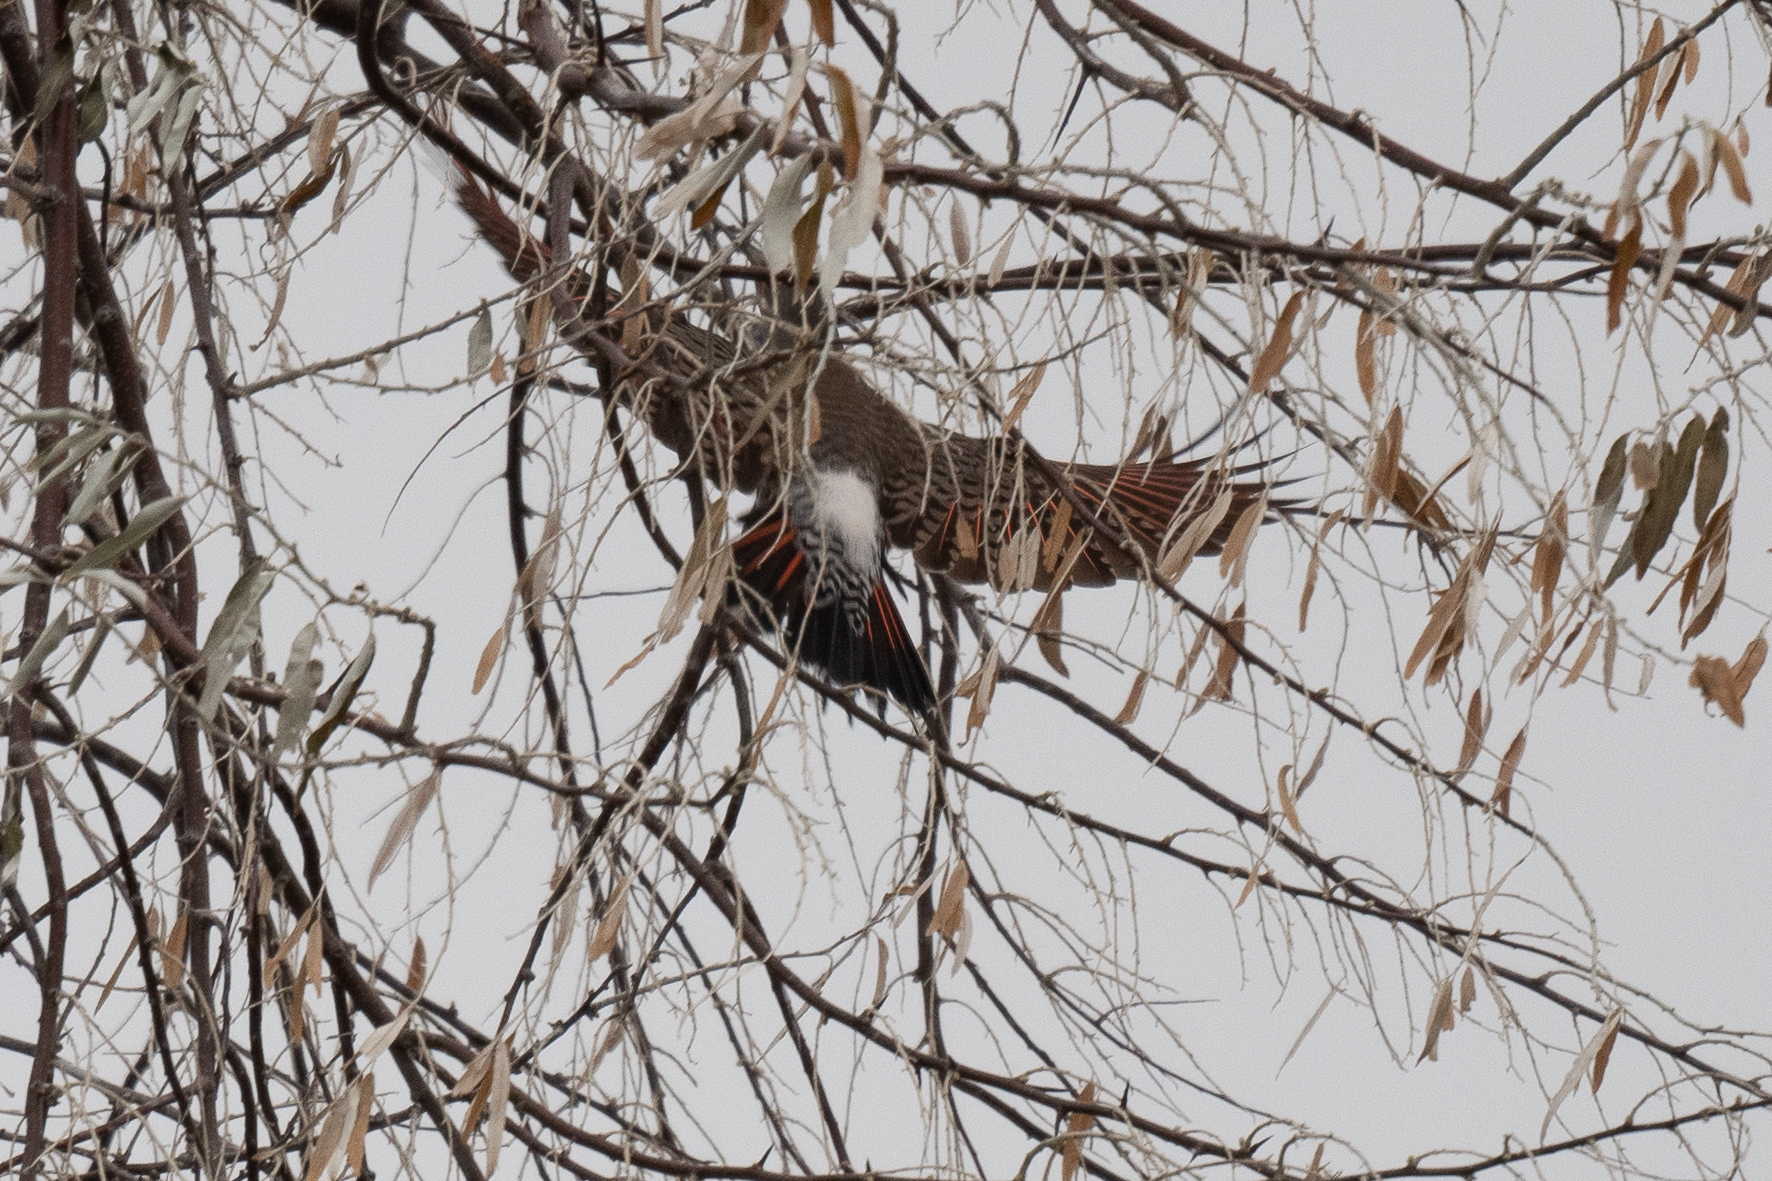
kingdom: Animalia
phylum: Chordata
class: Aves
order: Piciformes
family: Picidae
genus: Colaptes
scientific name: Colaptes auratus
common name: Northern flicker
